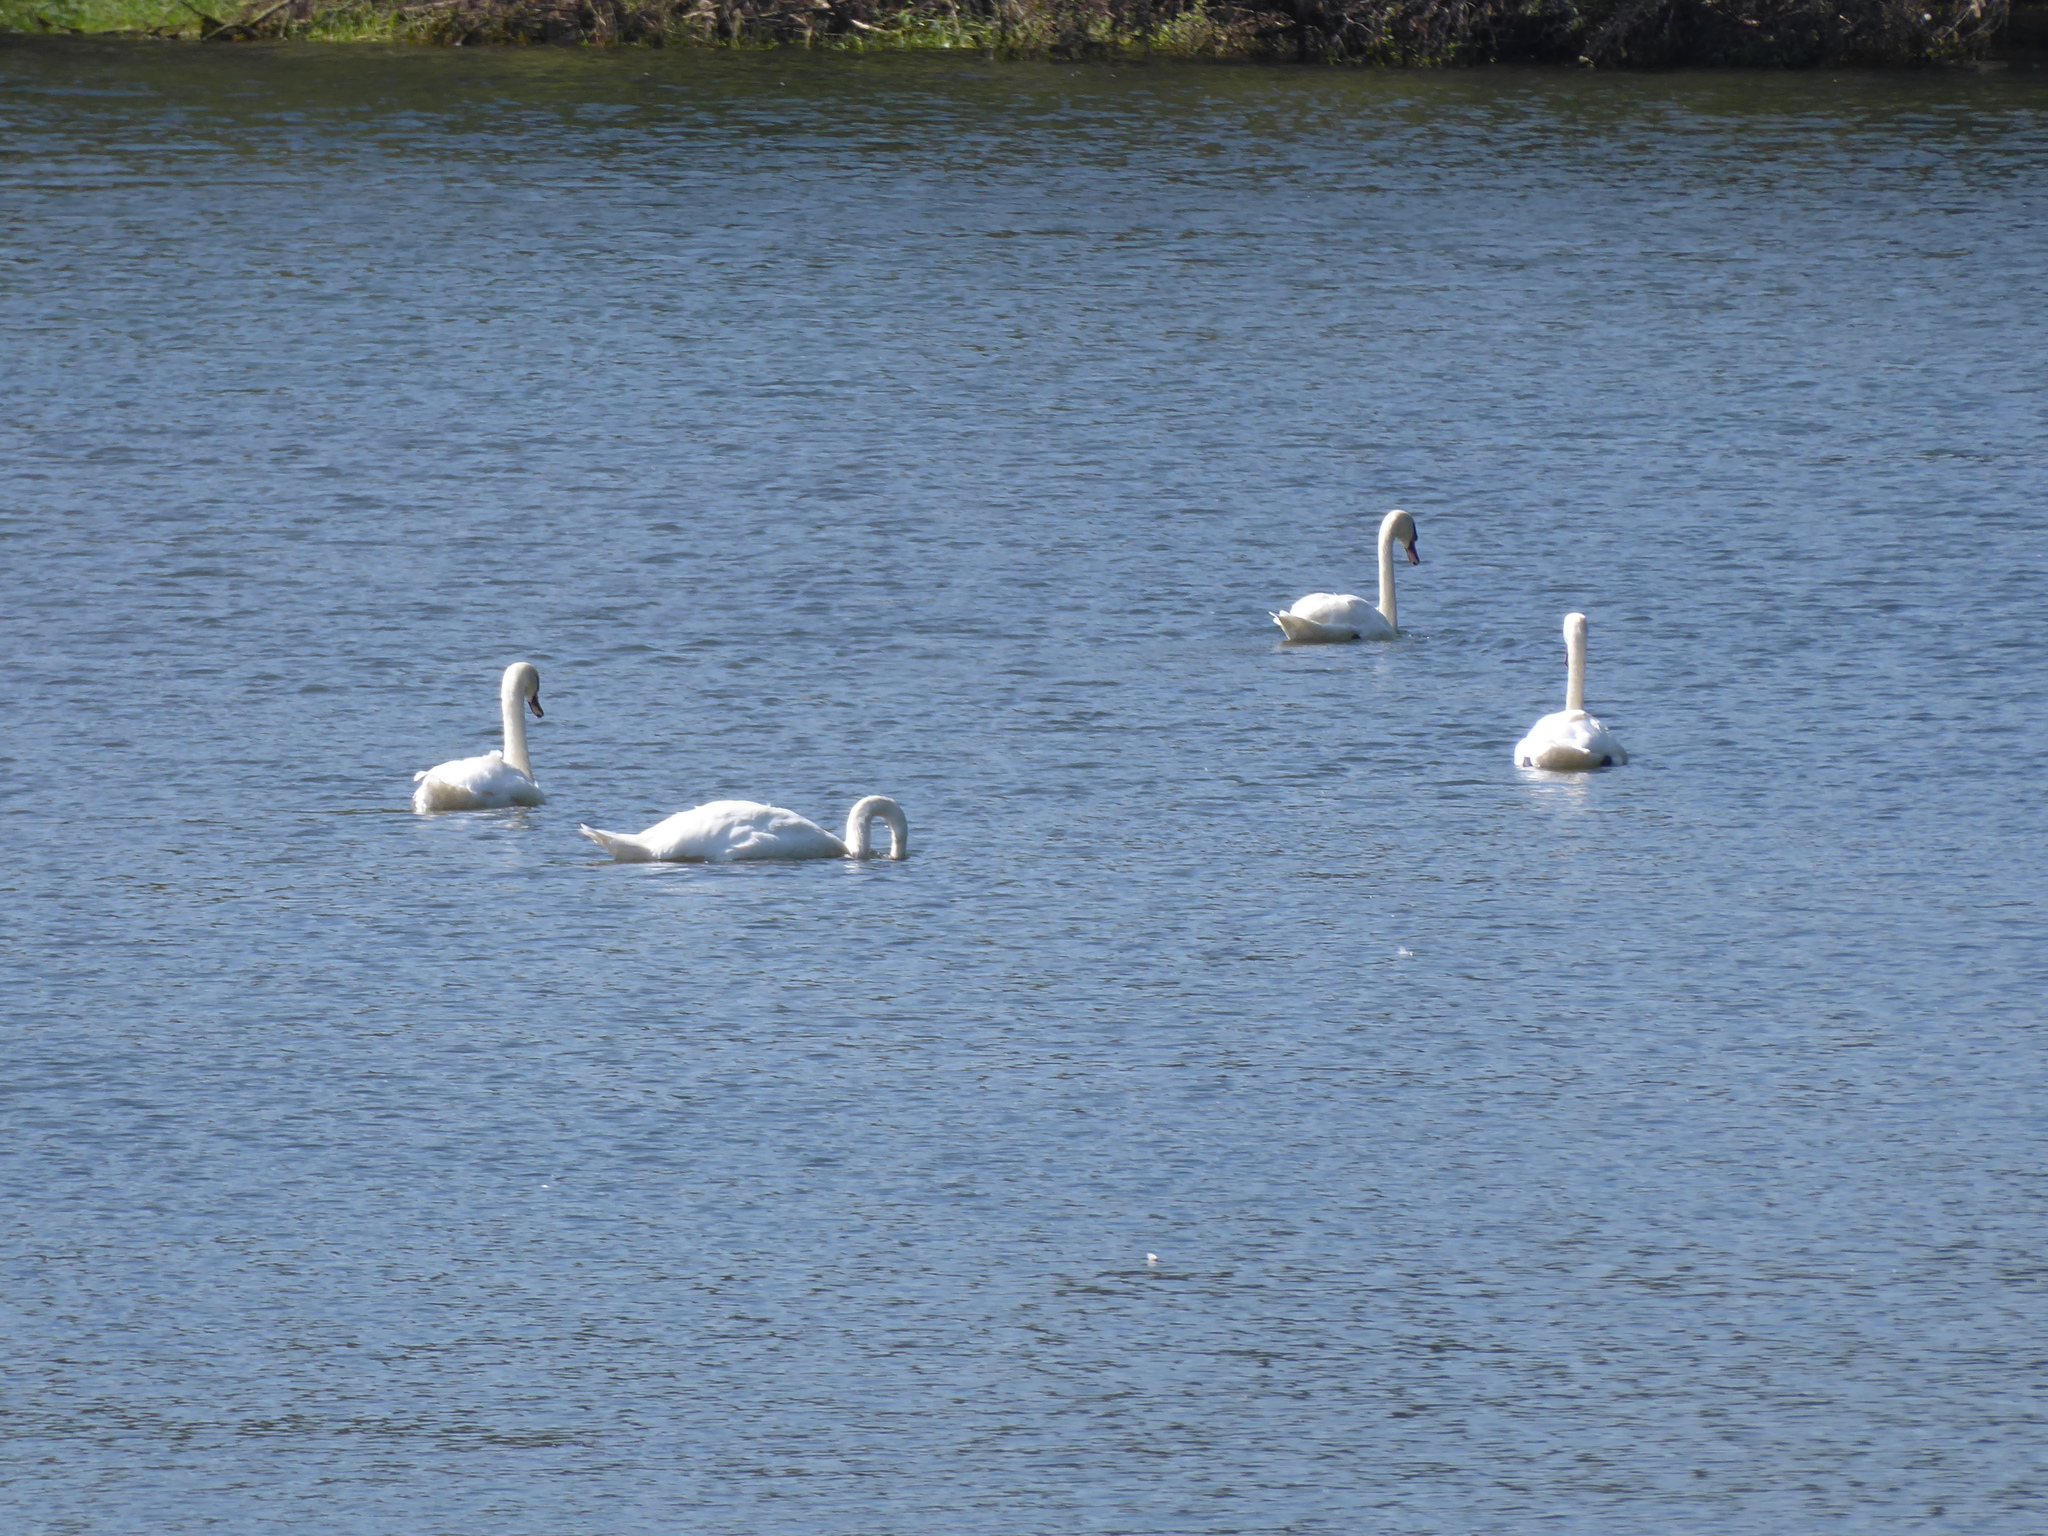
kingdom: Animalia
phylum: Chordata
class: Aves
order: Anseriformes
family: Anatidae
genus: Cygnus
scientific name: Cygnus olor
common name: Mute swan
